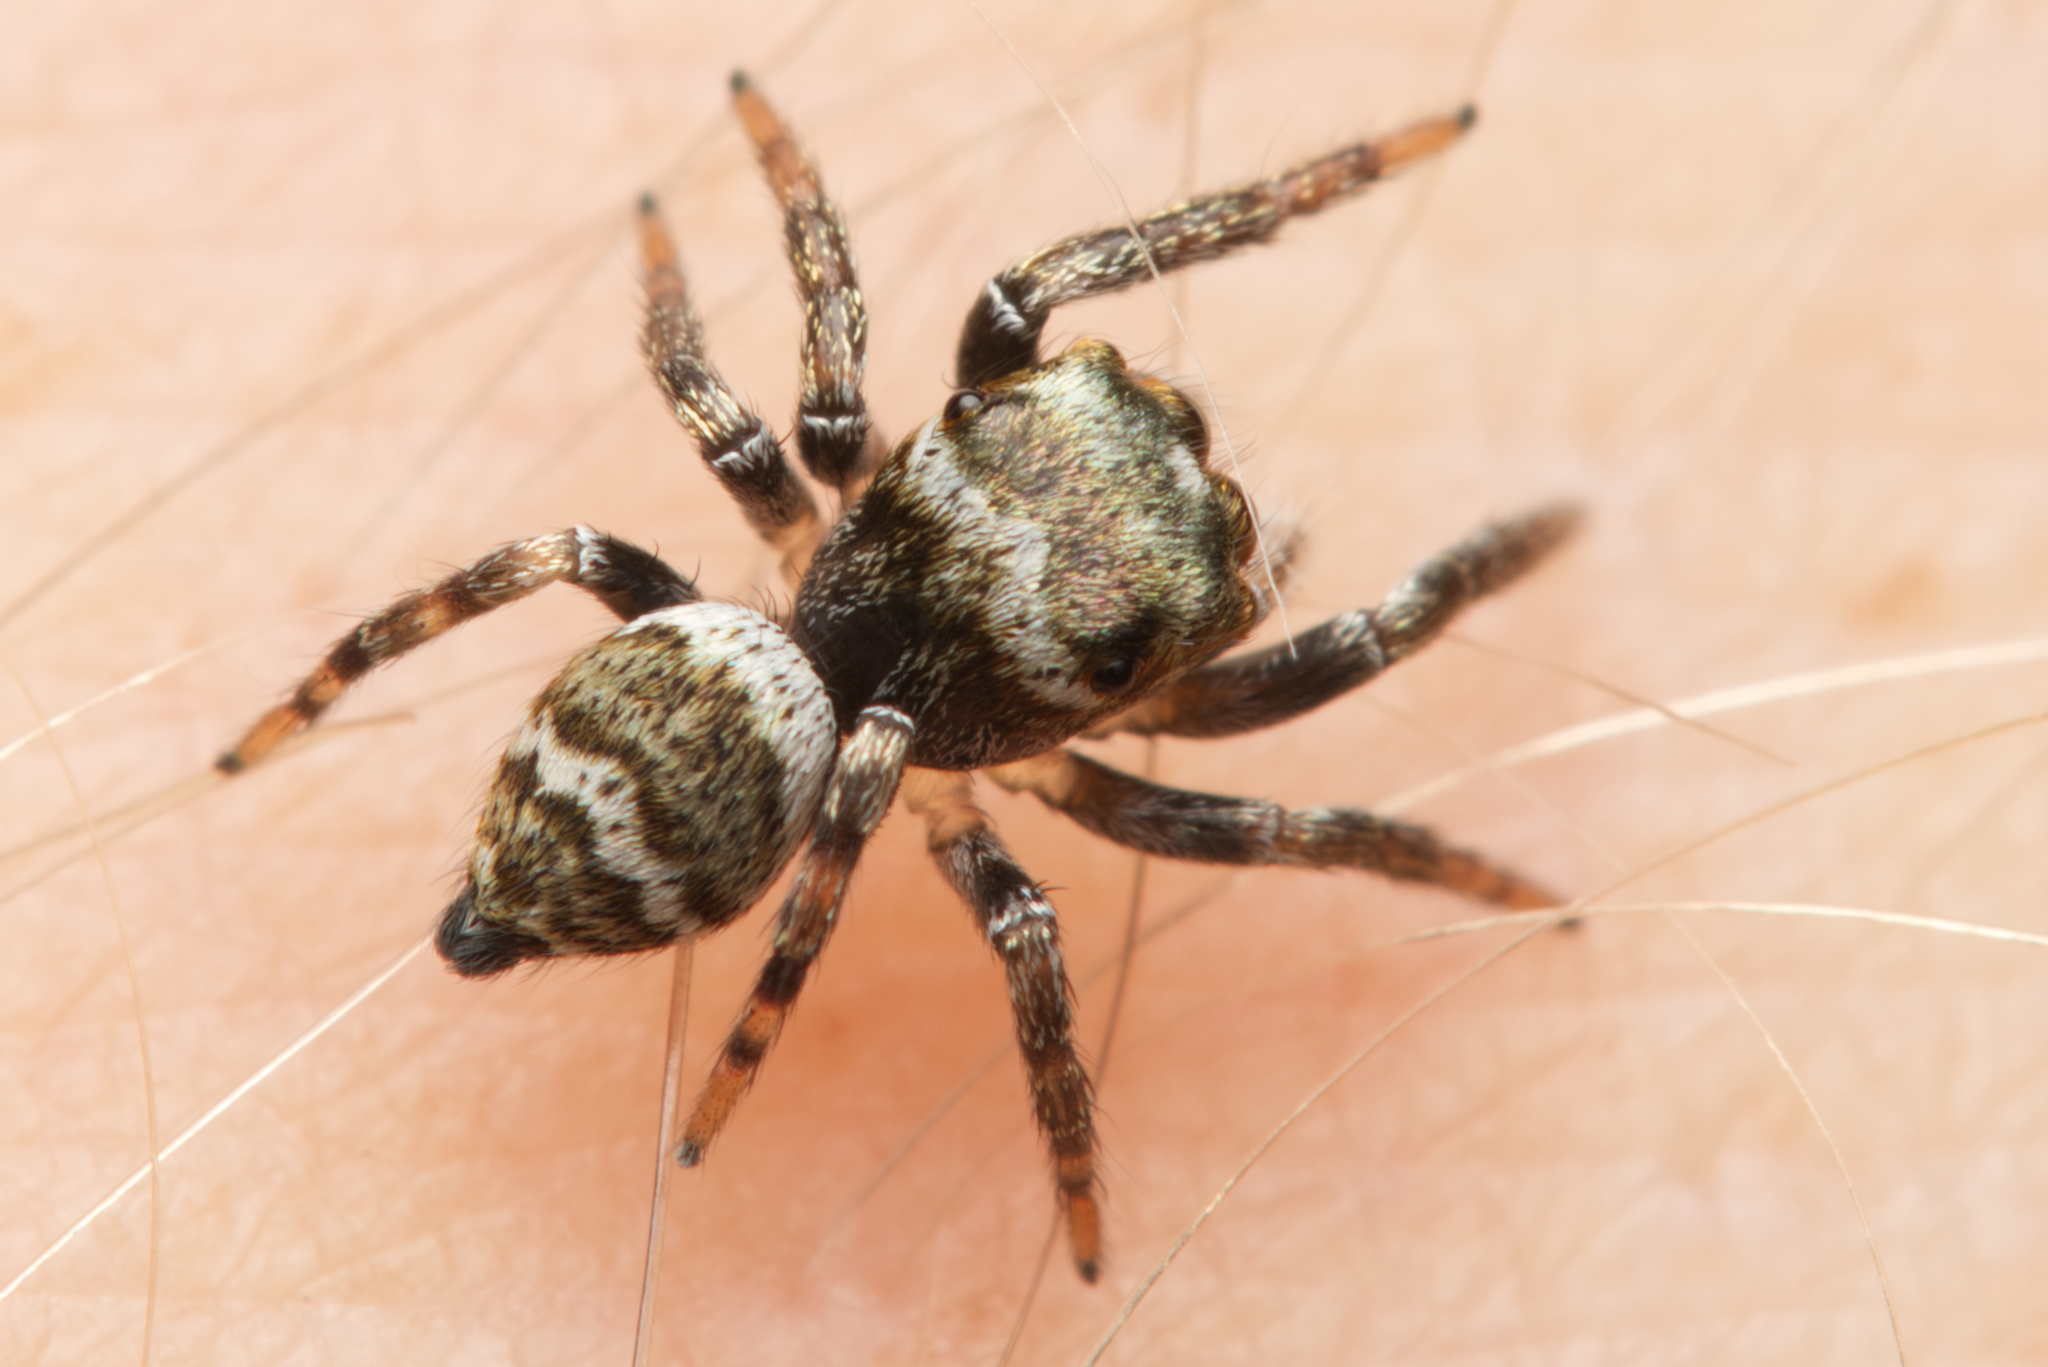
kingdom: Animalia
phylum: Arthropoda
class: Arachnida
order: Araneae
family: Salticidae
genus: Euryattus
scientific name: Euryattus bleekeri
